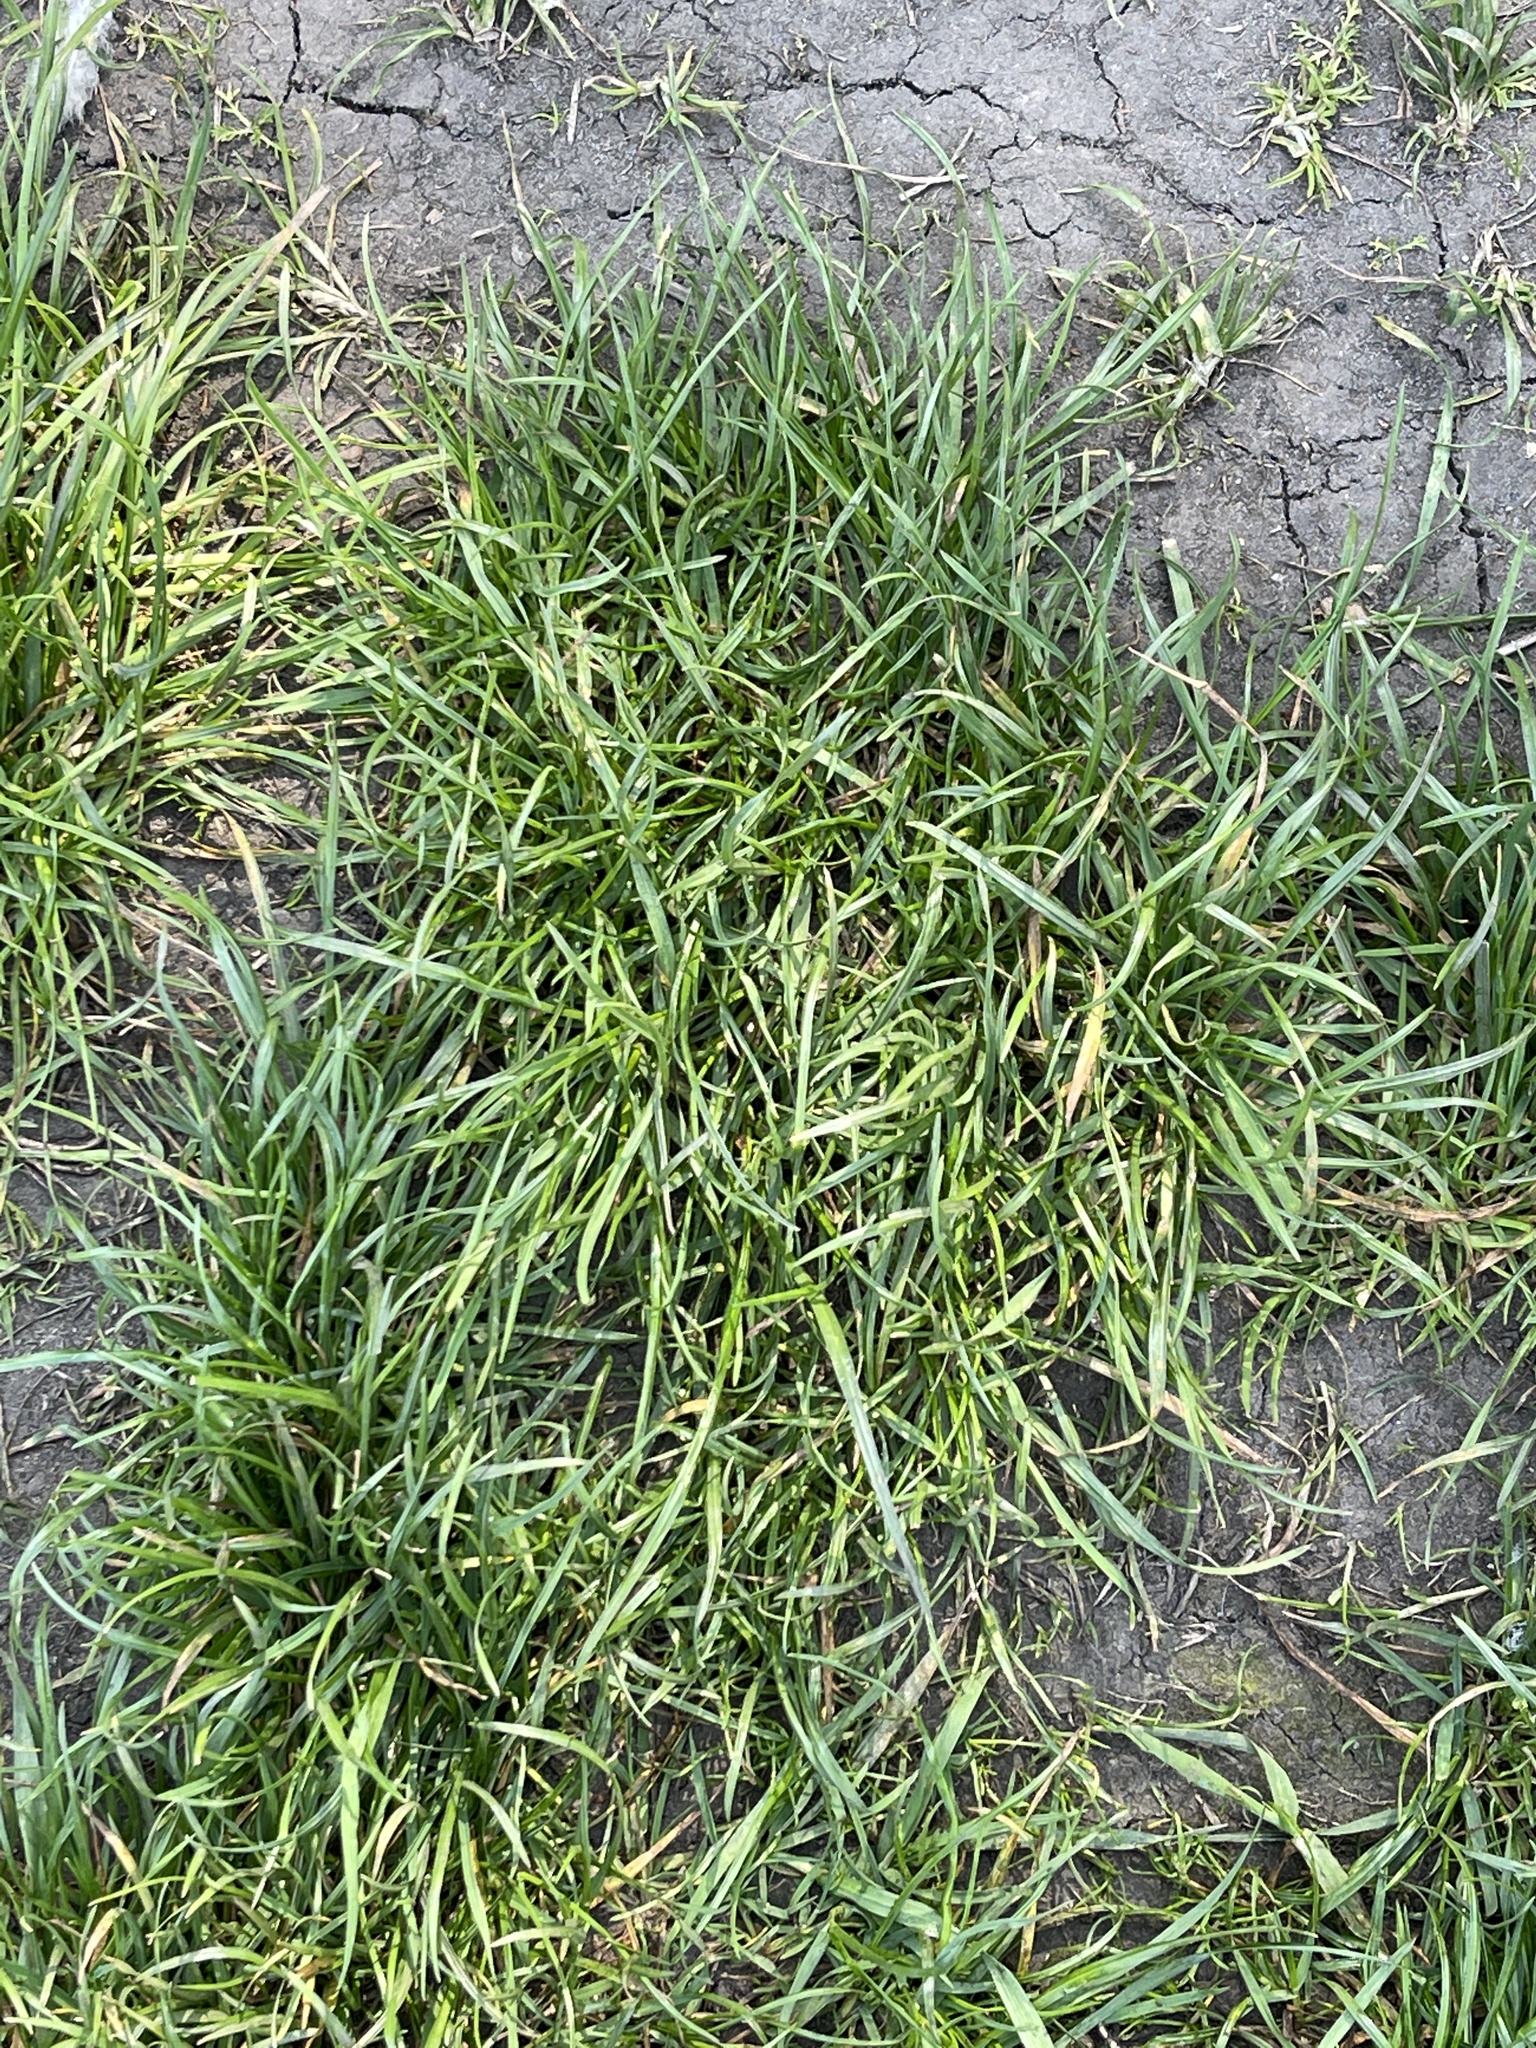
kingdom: Plantae
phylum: Tracheophyta
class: Liliopsida
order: Poales
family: Poaceae
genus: Lolium
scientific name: Lolium perenne
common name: Perennial ryegrass
